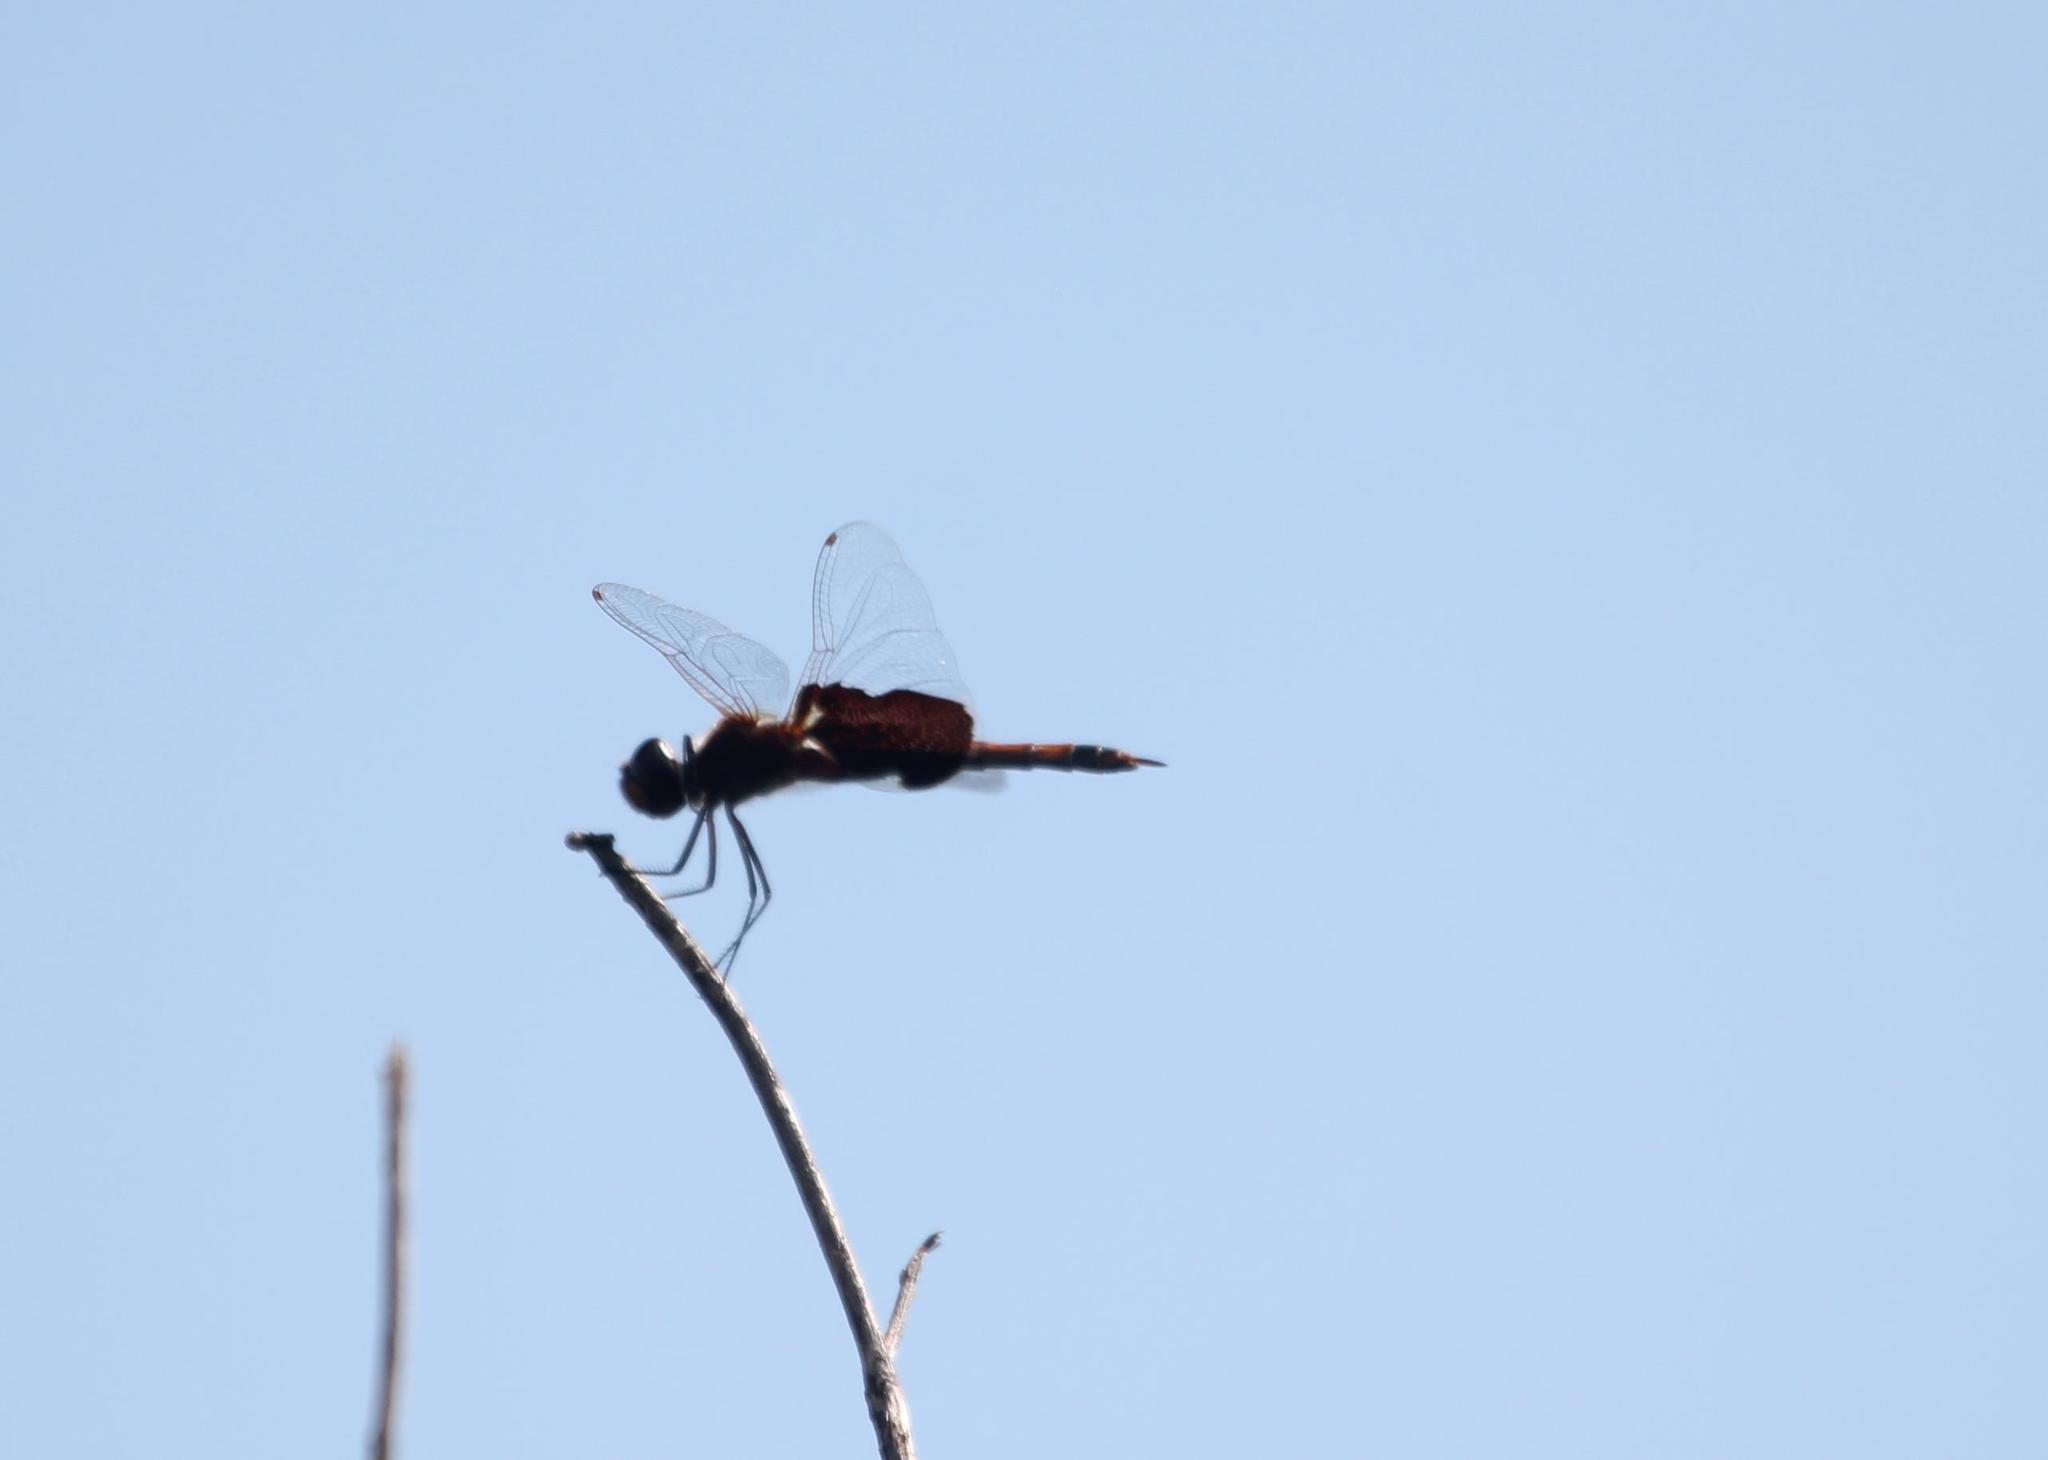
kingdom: Animalia
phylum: Arthropoda
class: Insecta
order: Odonata
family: Libellulidae
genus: Tramea
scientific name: Tramea carolina
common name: Carolina saddlebags
